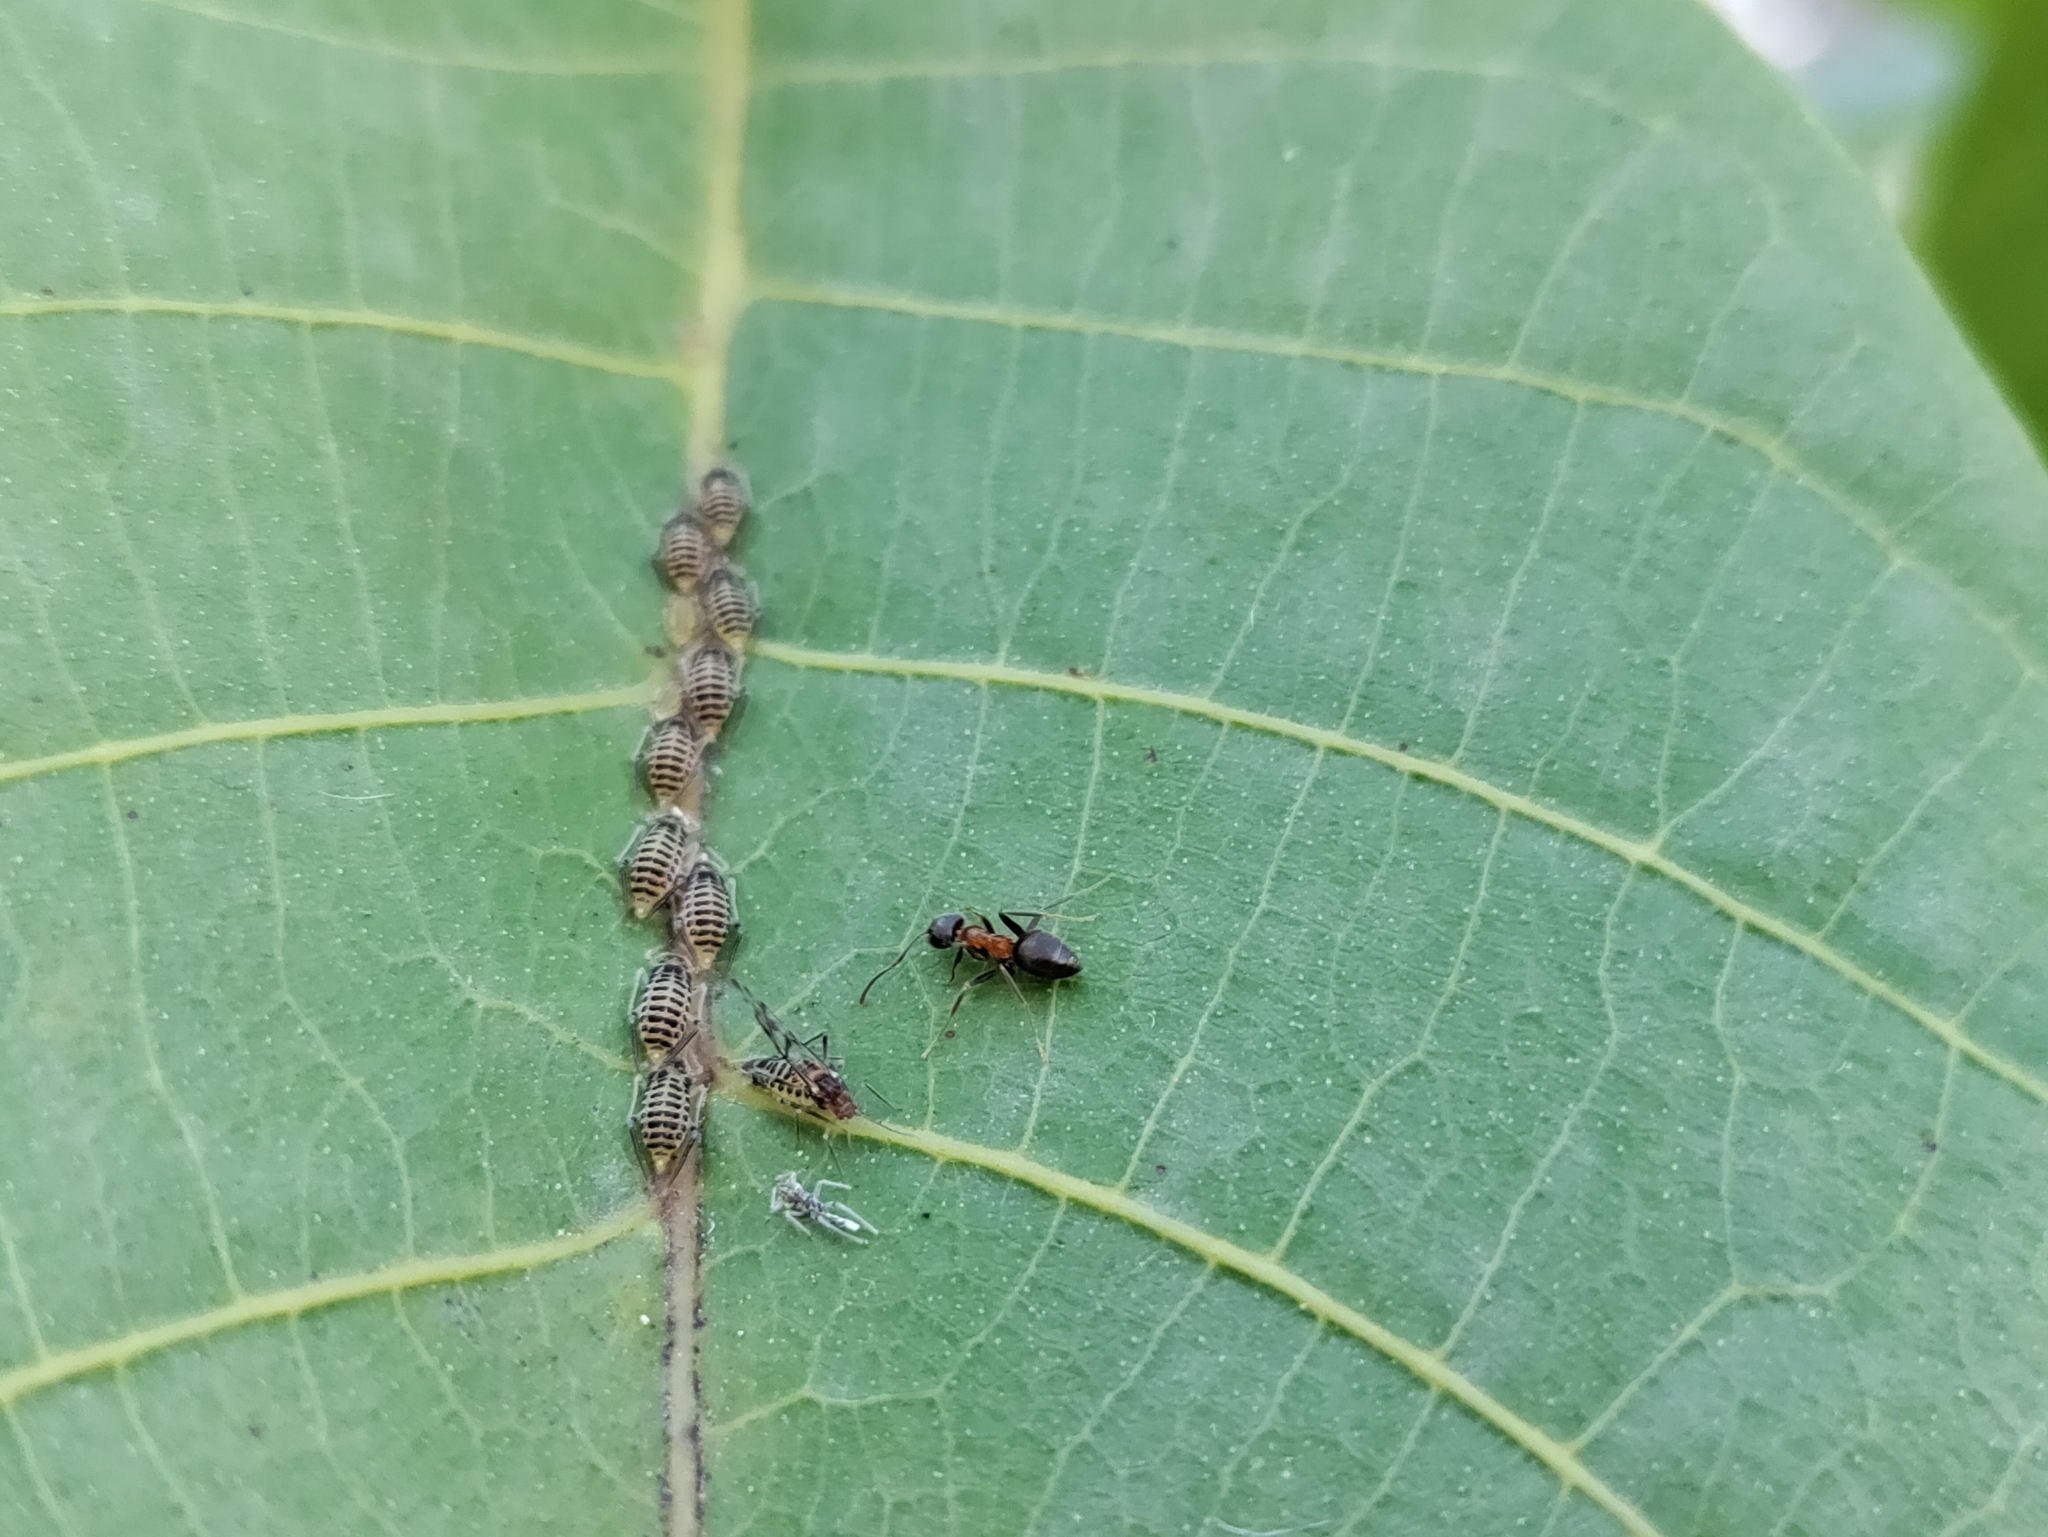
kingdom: Animalia
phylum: Arthropoda
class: Insecta
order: Hemiptera
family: Aphididae
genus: Panaphis
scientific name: Panaphis juglandis
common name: Large walnut aphid
